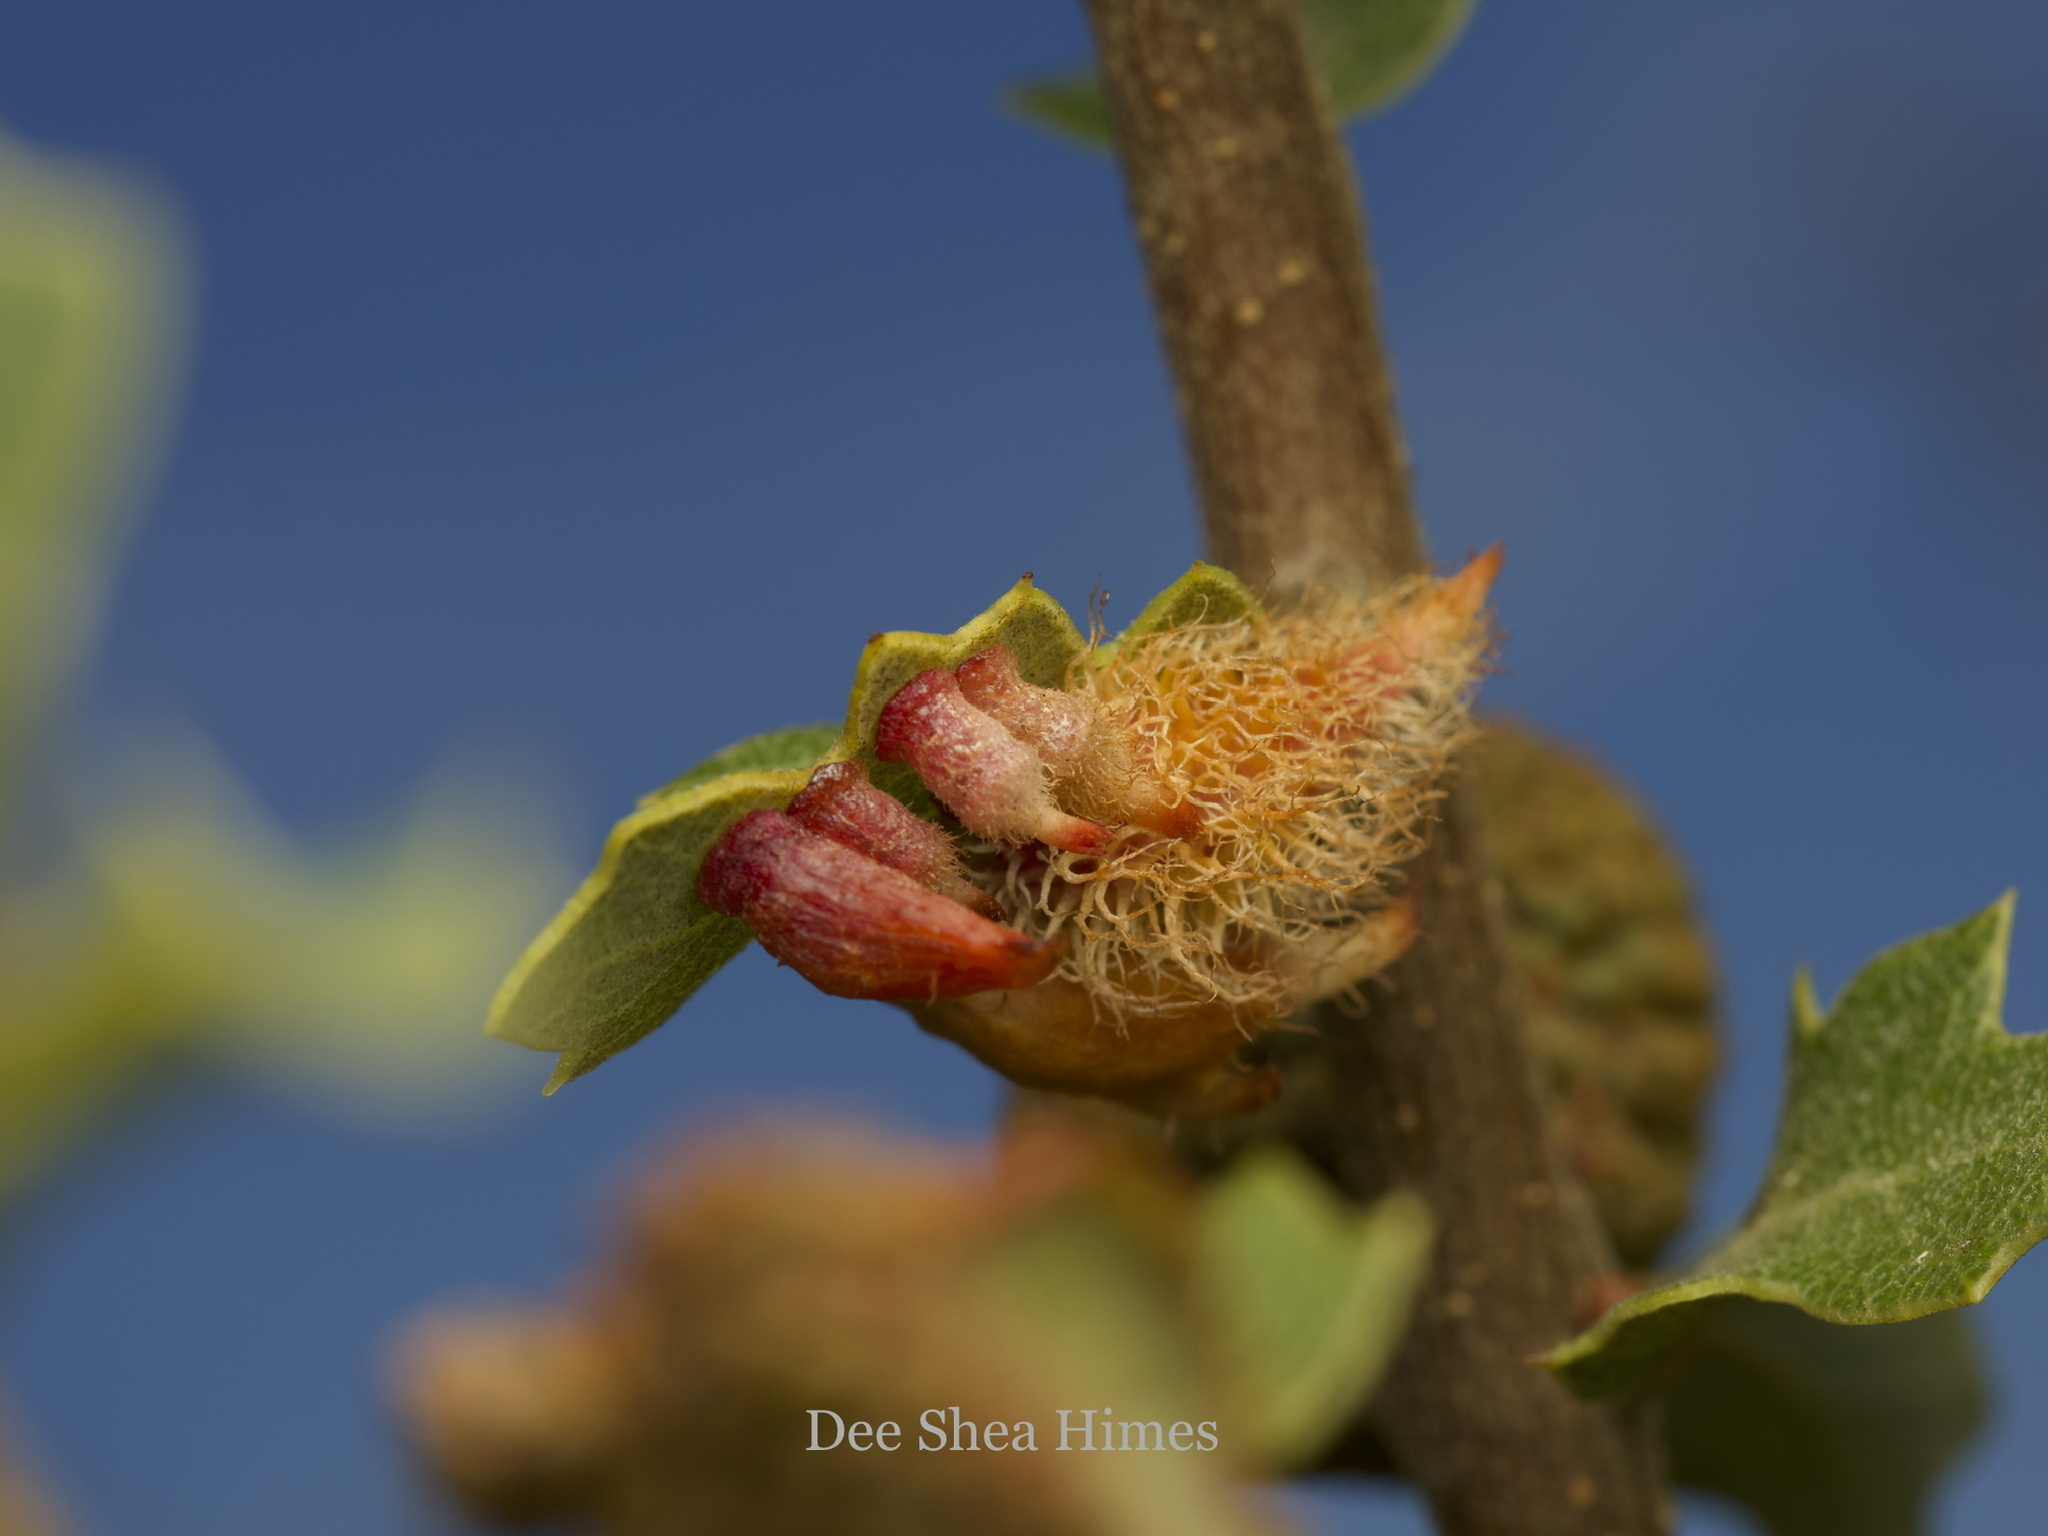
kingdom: Animalia
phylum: Arthropoda
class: Insecta
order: Hymenoptera
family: Cynipidae
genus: Andricus
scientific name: Andricus
